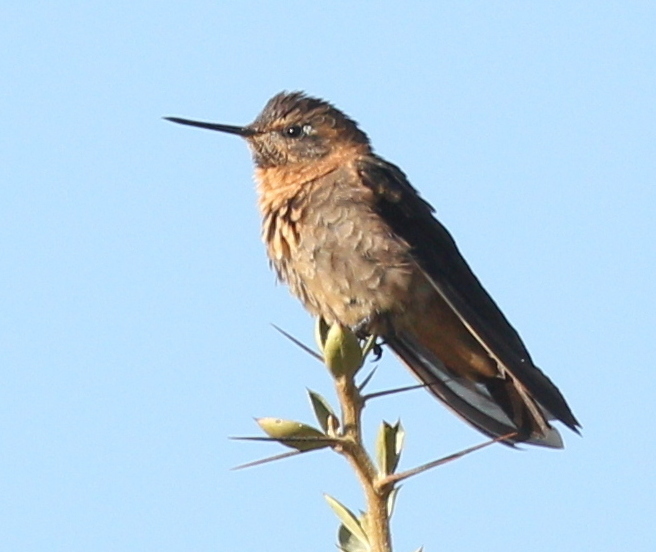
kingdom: Animalia
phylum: Chordata
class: Aves
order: Apodiformes
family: Trochilidae
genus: Aglaeactis
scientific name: Aglaeactis cupripennis
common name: Shining sunbeam
